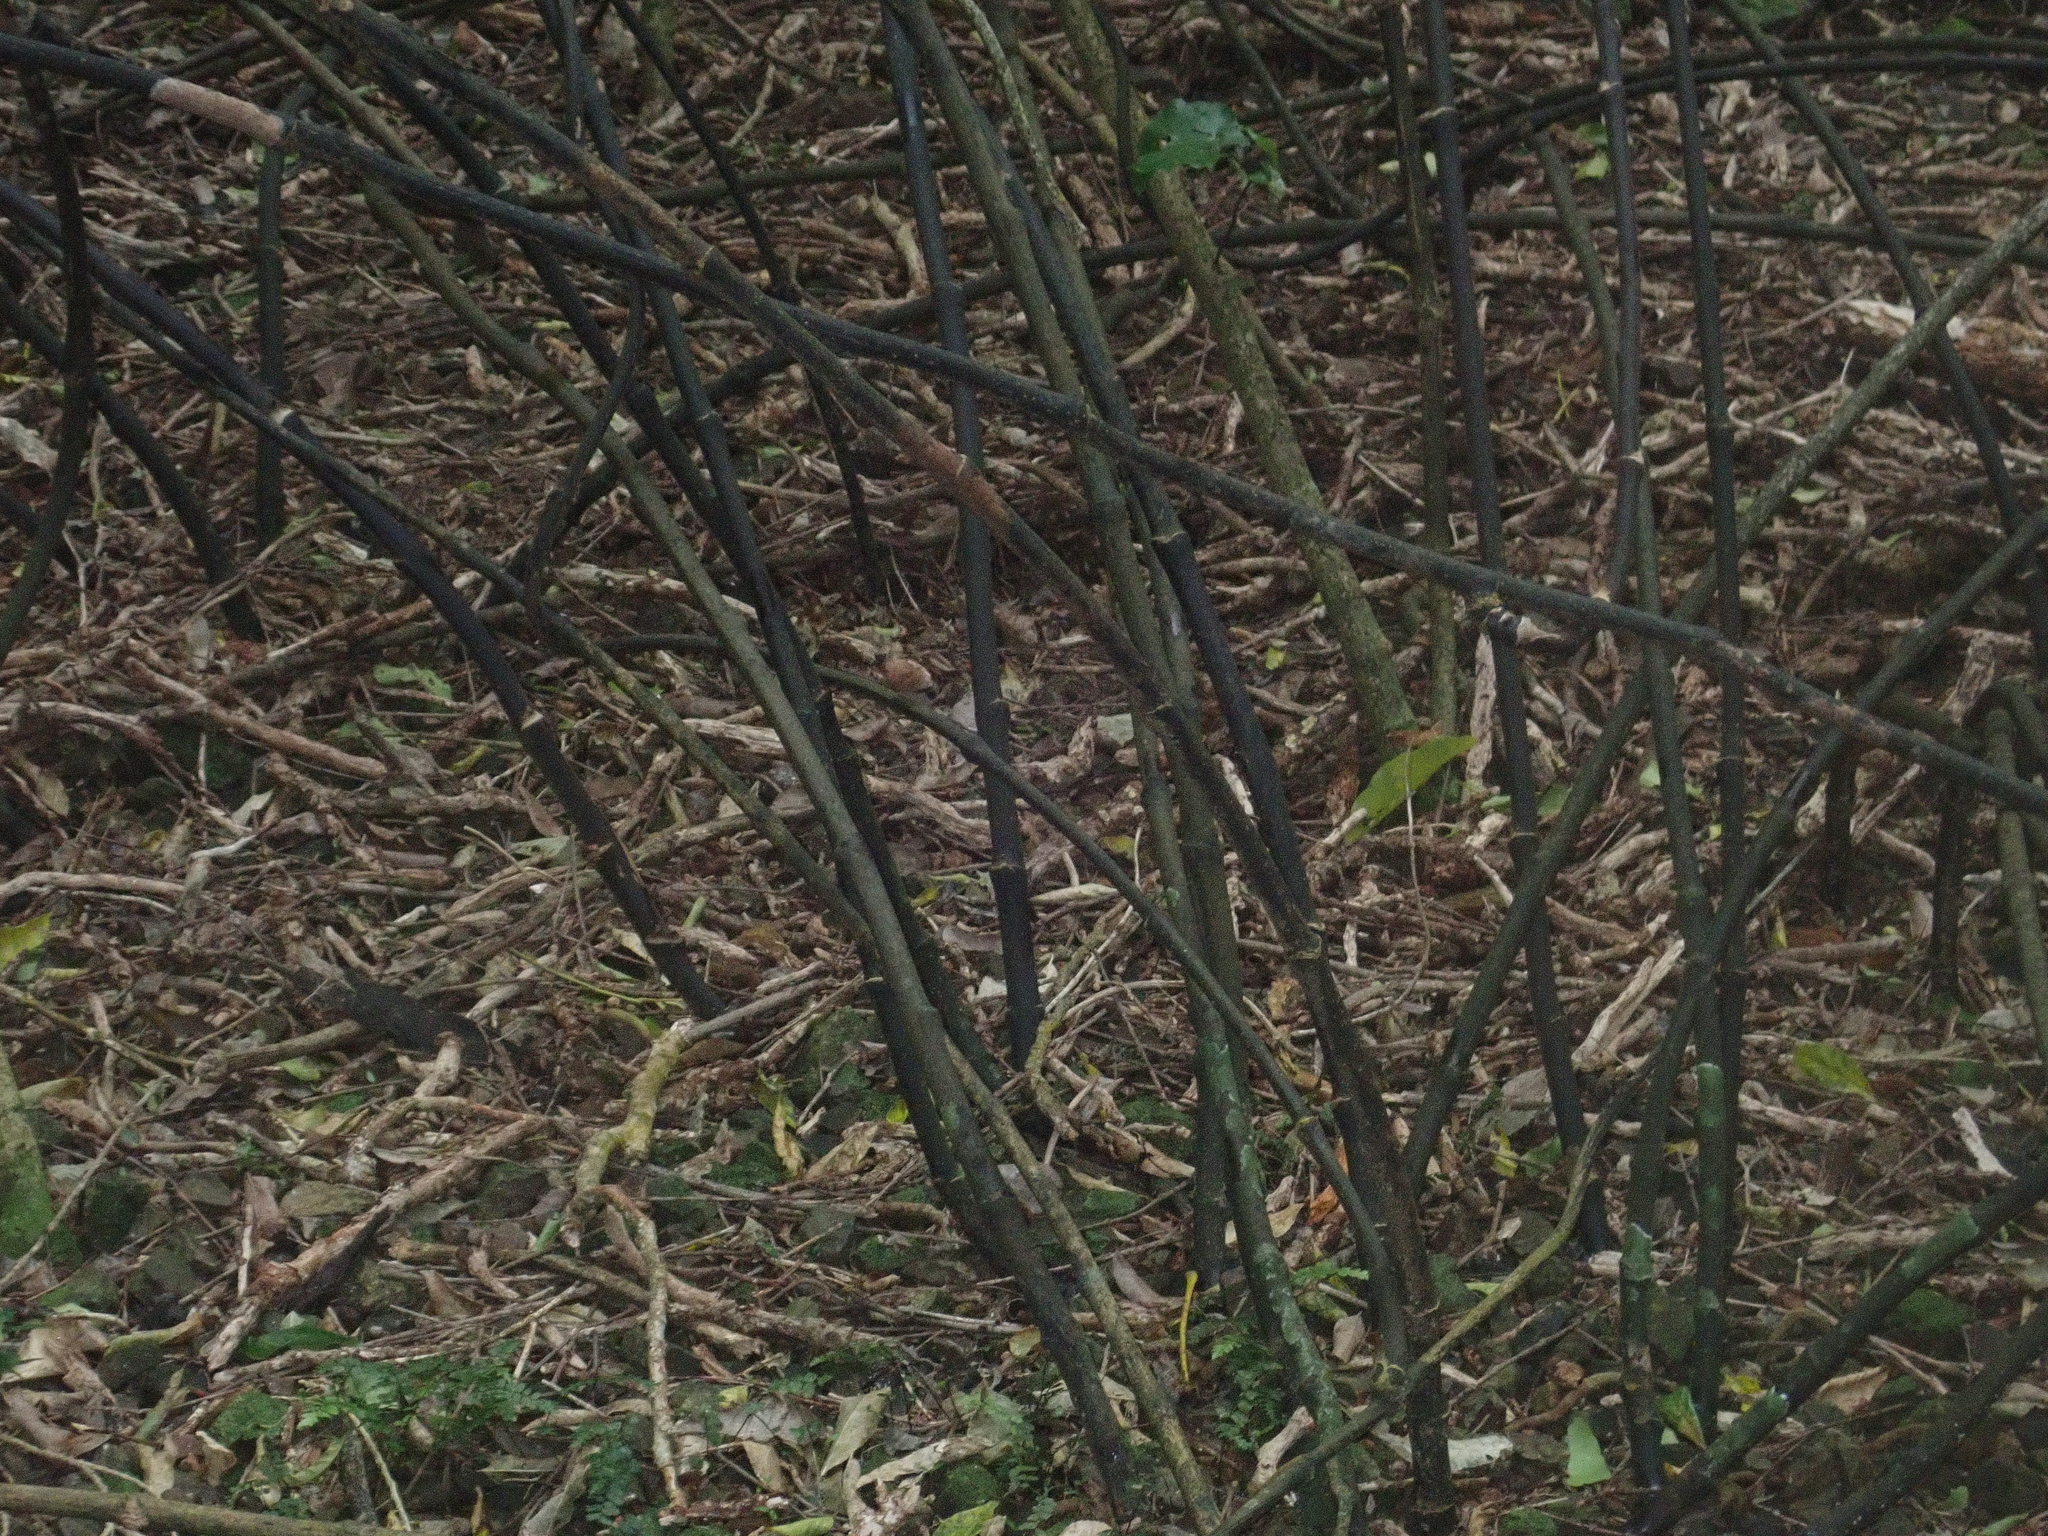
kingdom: Plantae
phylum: Tracheophyta
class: Liliopsida
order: Liliales
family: Ripogonaceae
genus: Ripogonum
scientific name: Ripogonum scandens
